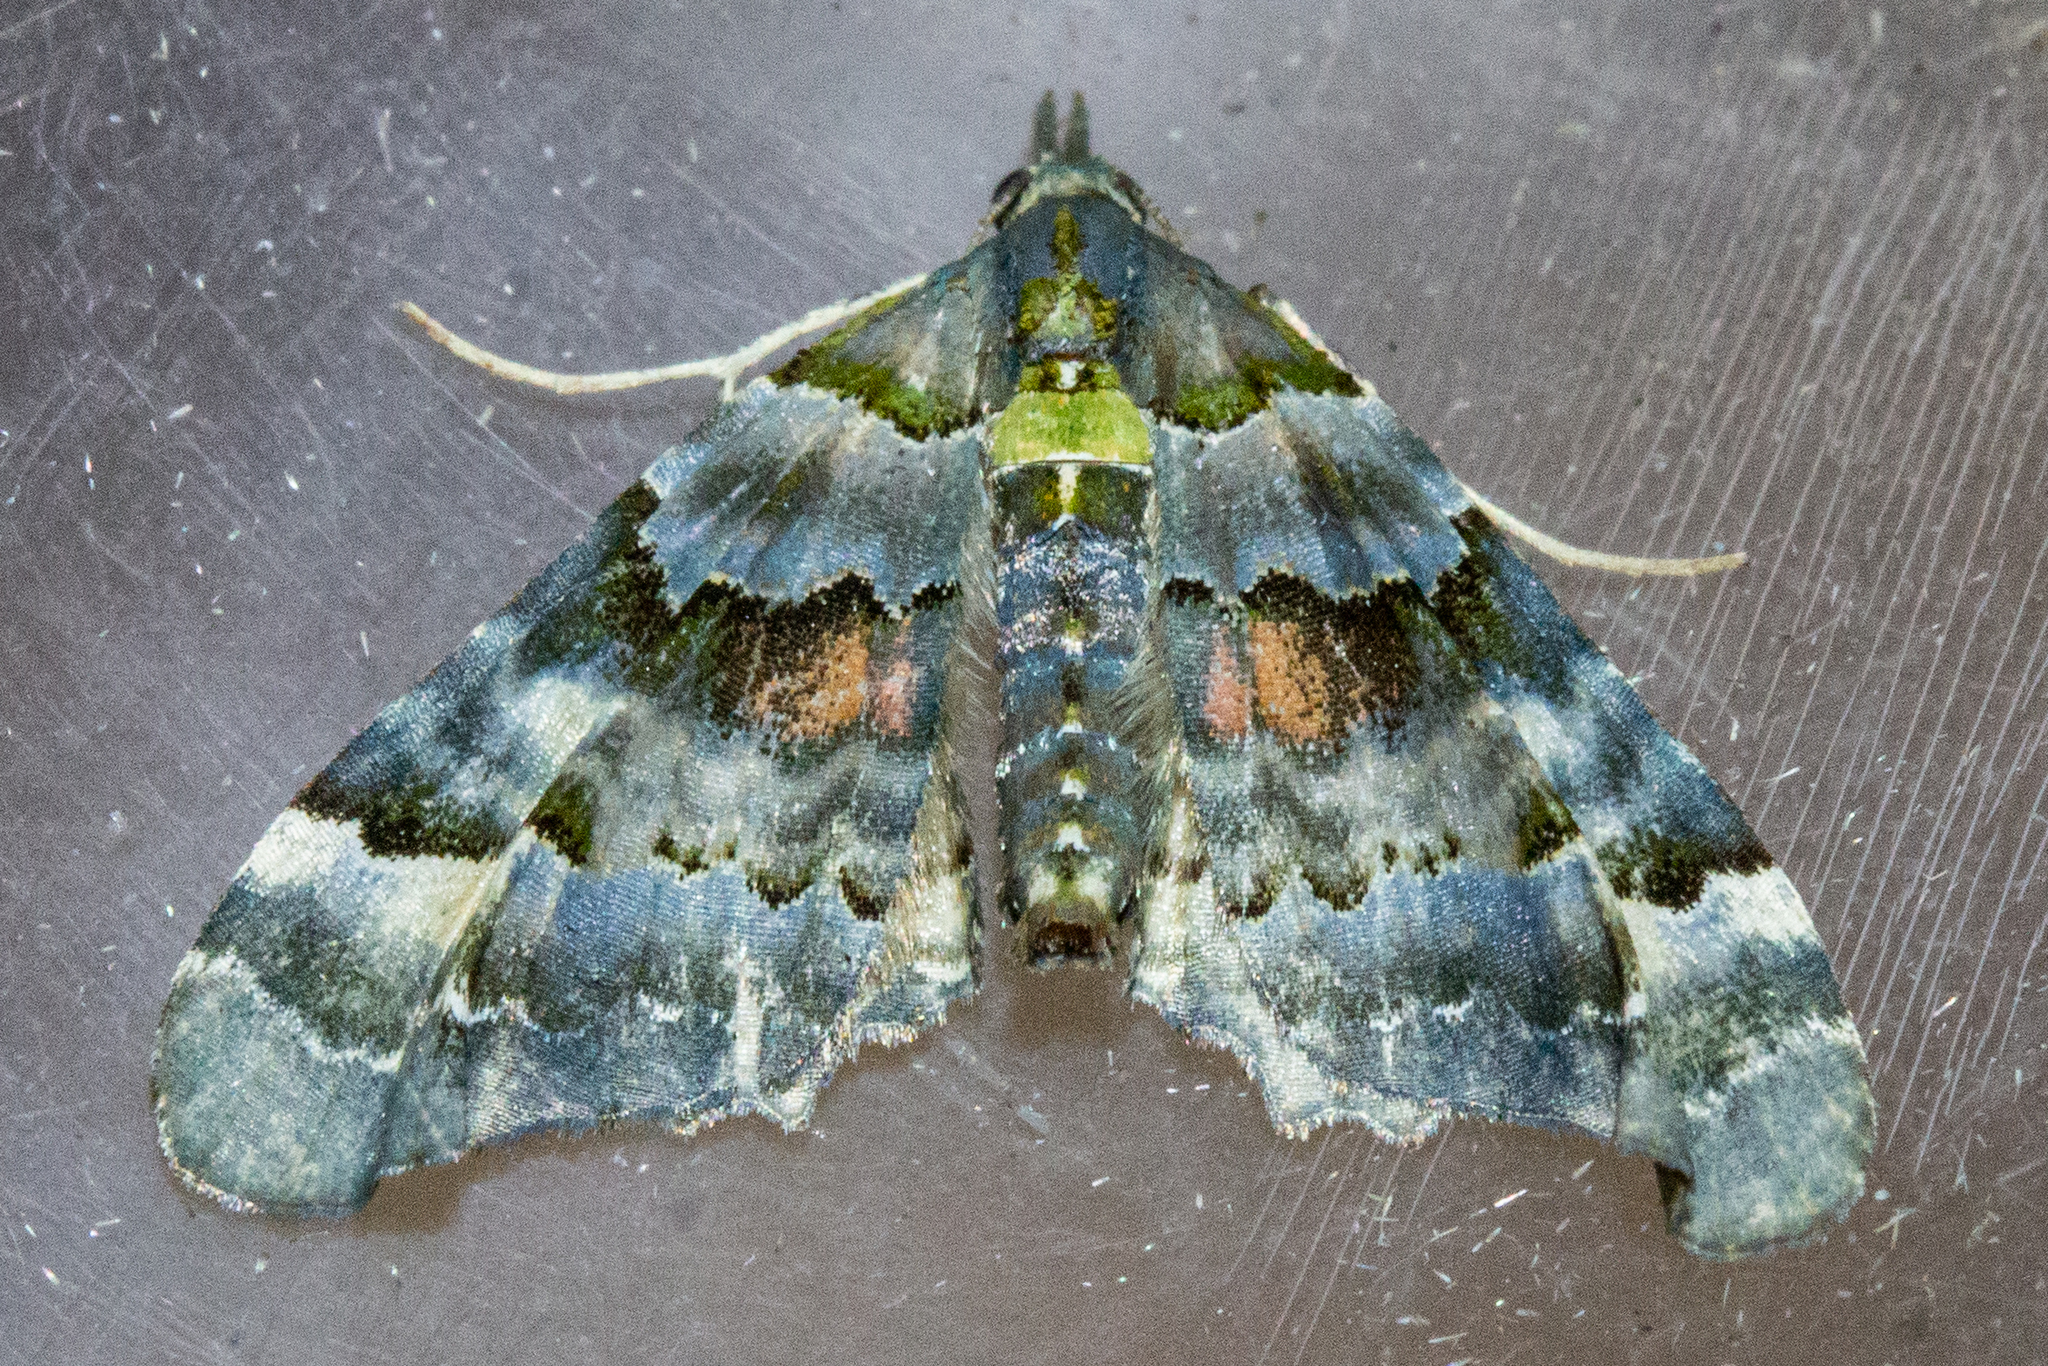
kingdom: Animalia
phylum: Arthropoda
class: Insecta
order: Lepidoptera
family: Geometridae
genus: Elvia
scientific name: Elvia glaucata
